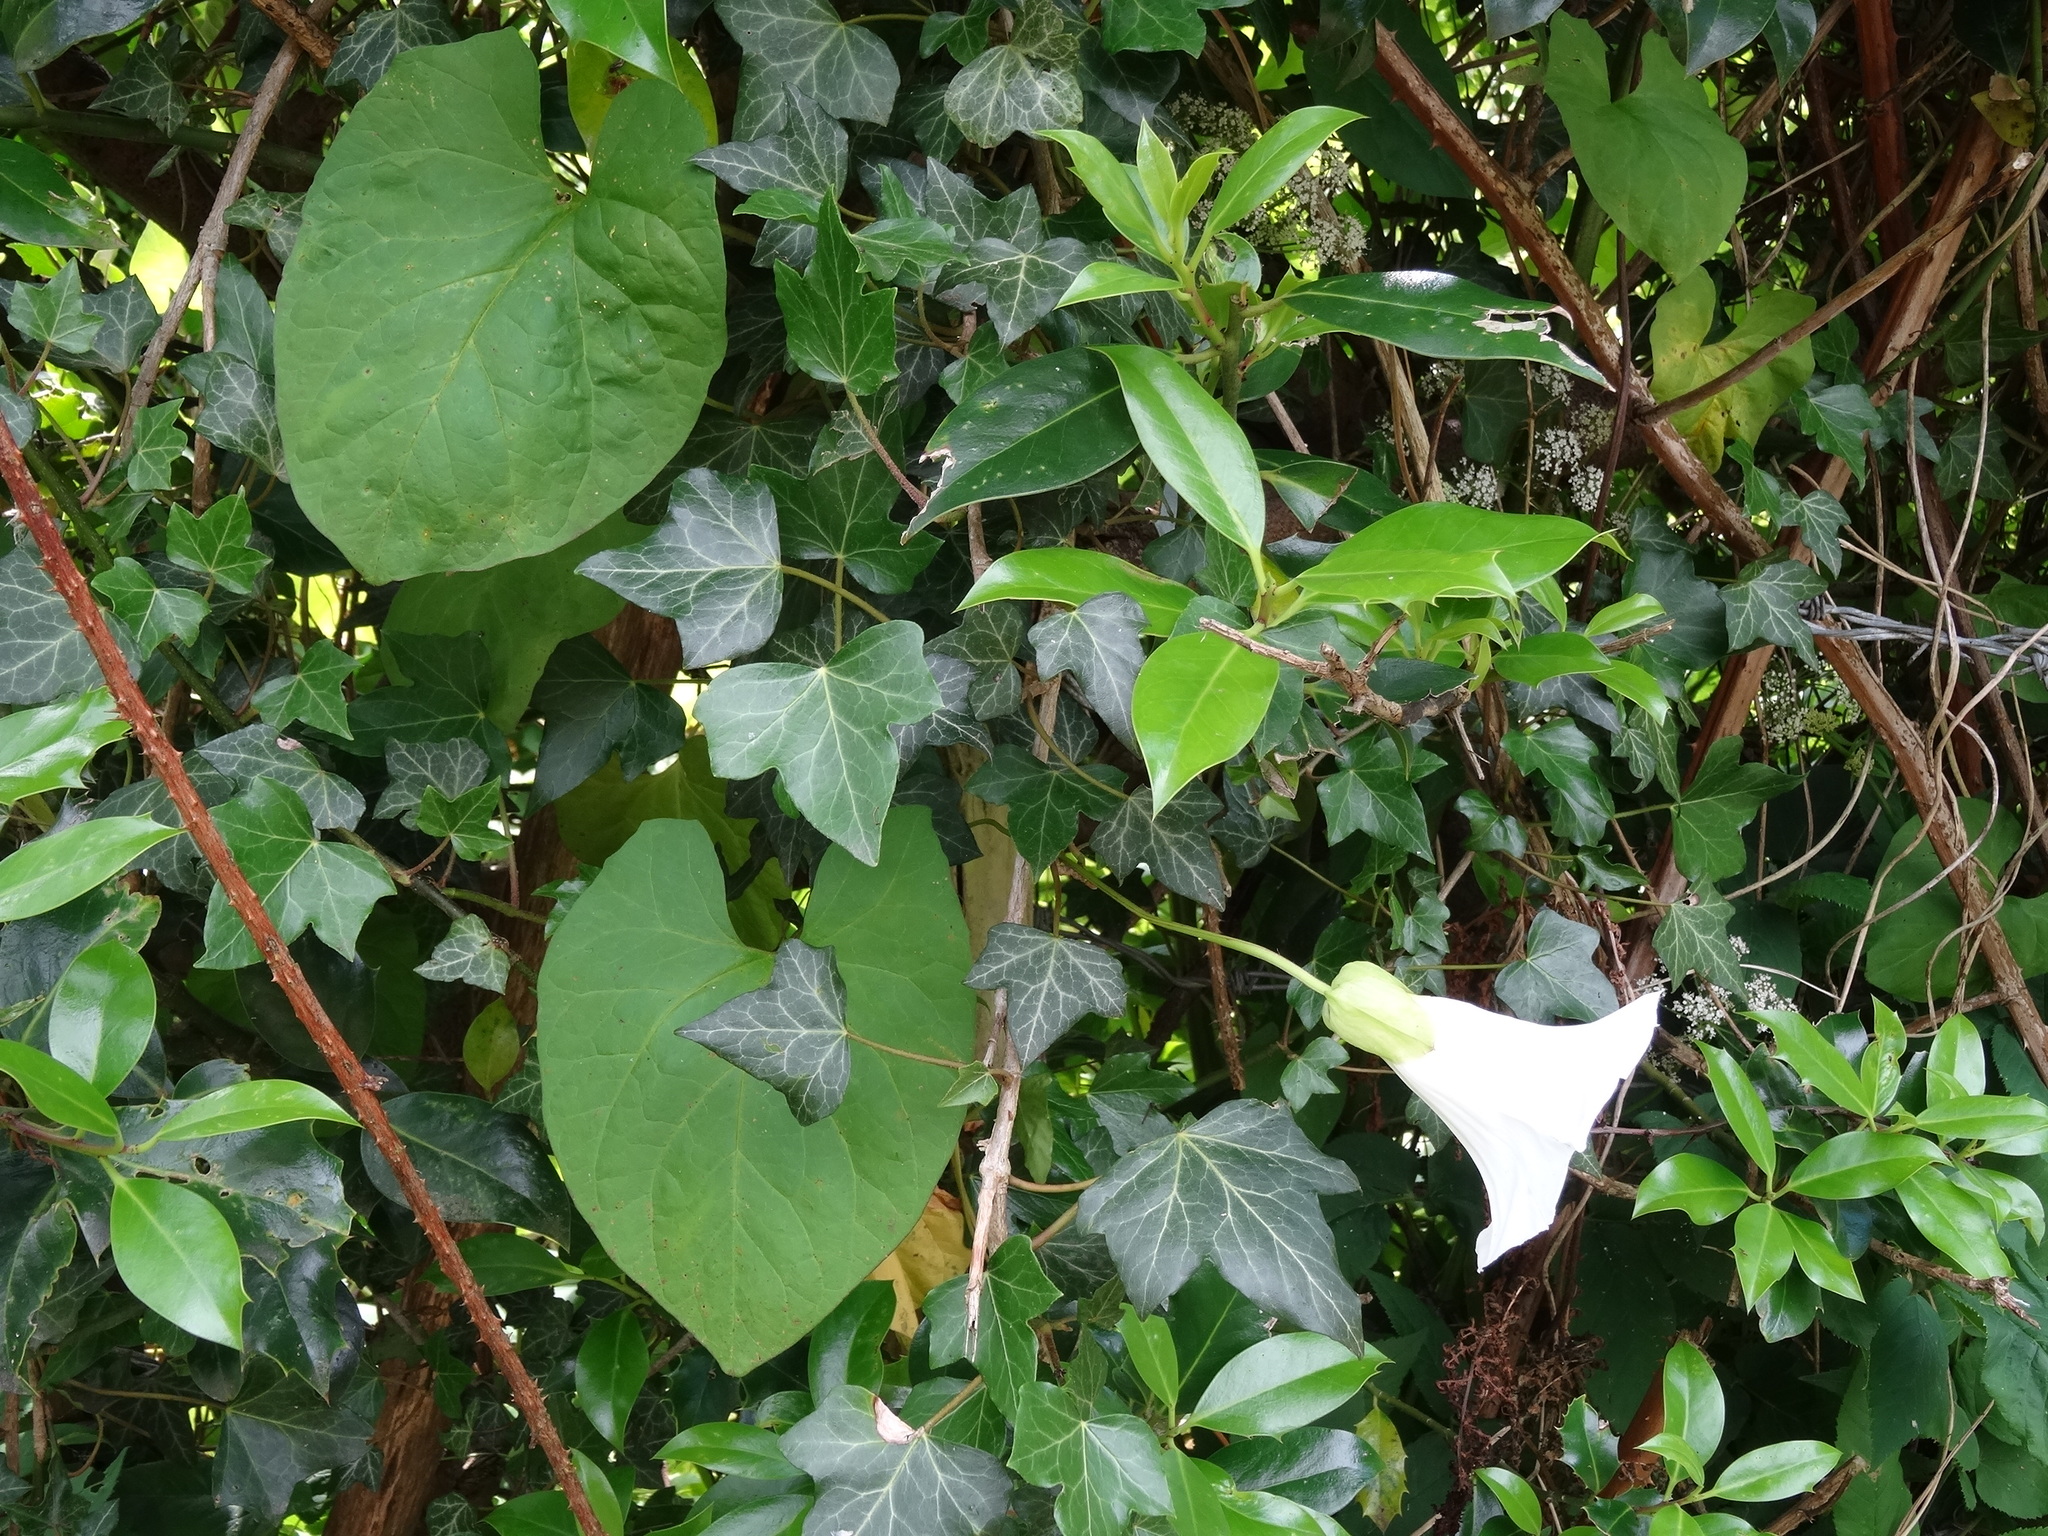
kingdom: Plantae
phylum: Tracheophyta
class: Magnoliopsida
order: Solanales
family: Convolvulaceae
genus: Calystegia
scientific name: Calystegia silvatica
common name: Large bindweed
